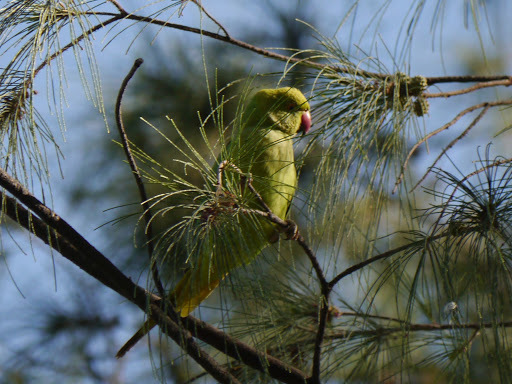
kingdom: Animalia
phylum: Chordata
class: Aves
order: Psittaciformes
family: Psittacidae
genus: Psittacula
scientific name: Psittacula krameri
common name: Rose-ringed parakeet
